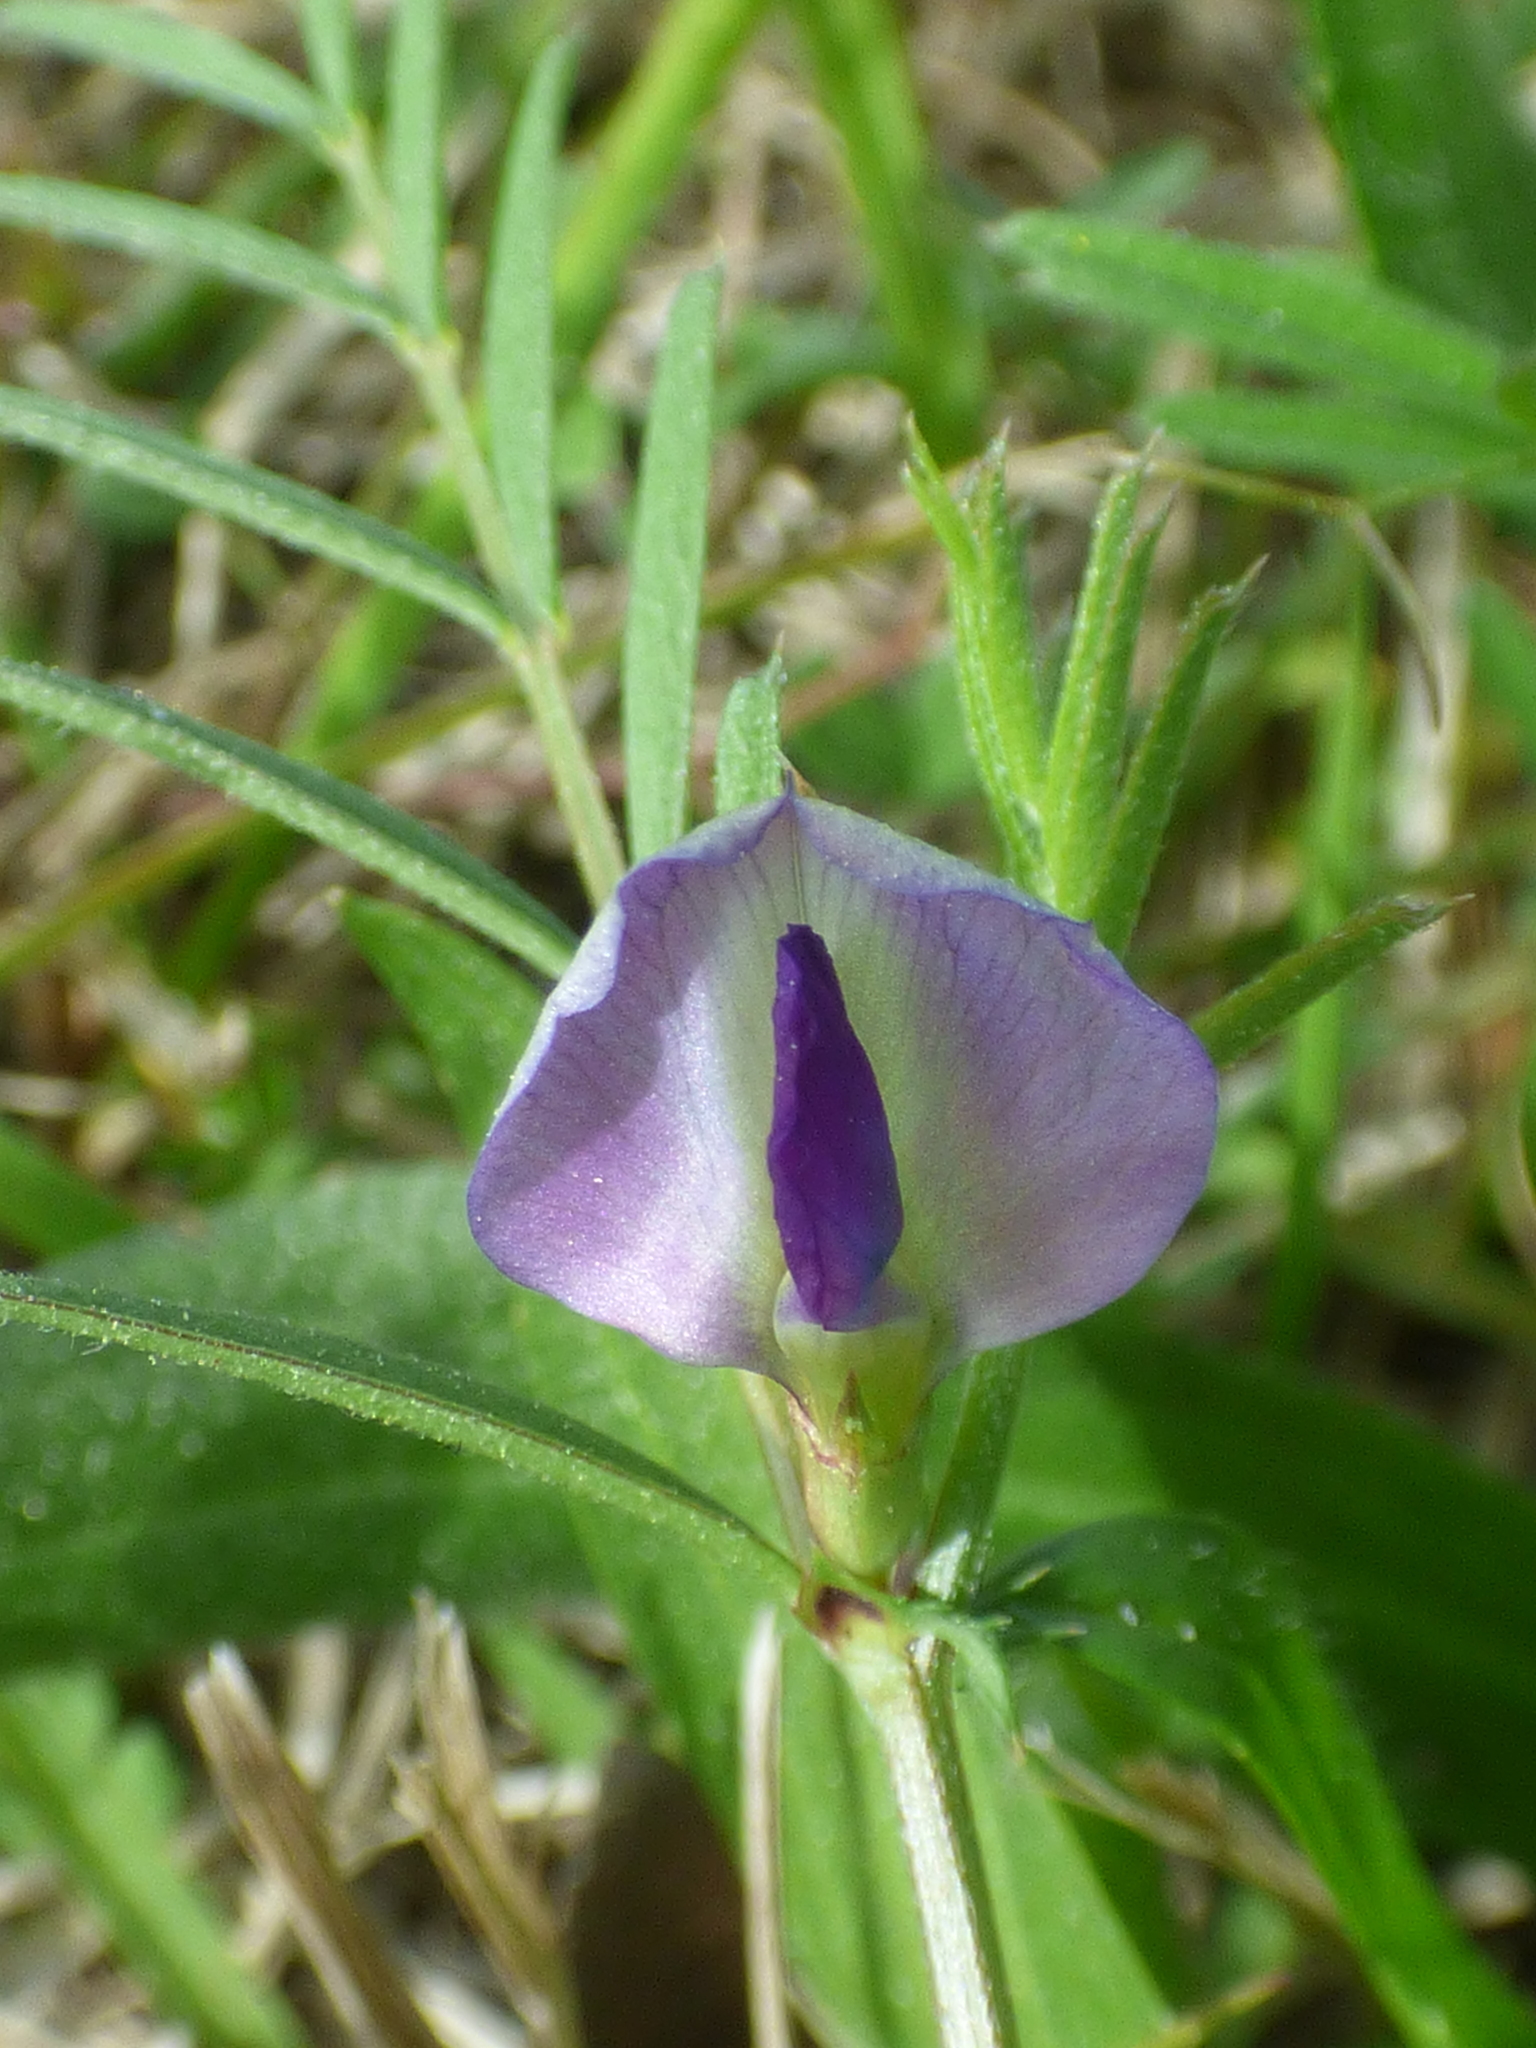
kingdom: Plantae
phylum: Tracheophyta
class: Magnoliopsida
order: Fabales
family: Fabaceae
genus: Vicia
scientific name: Vicia sativa
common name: Garden vetch
